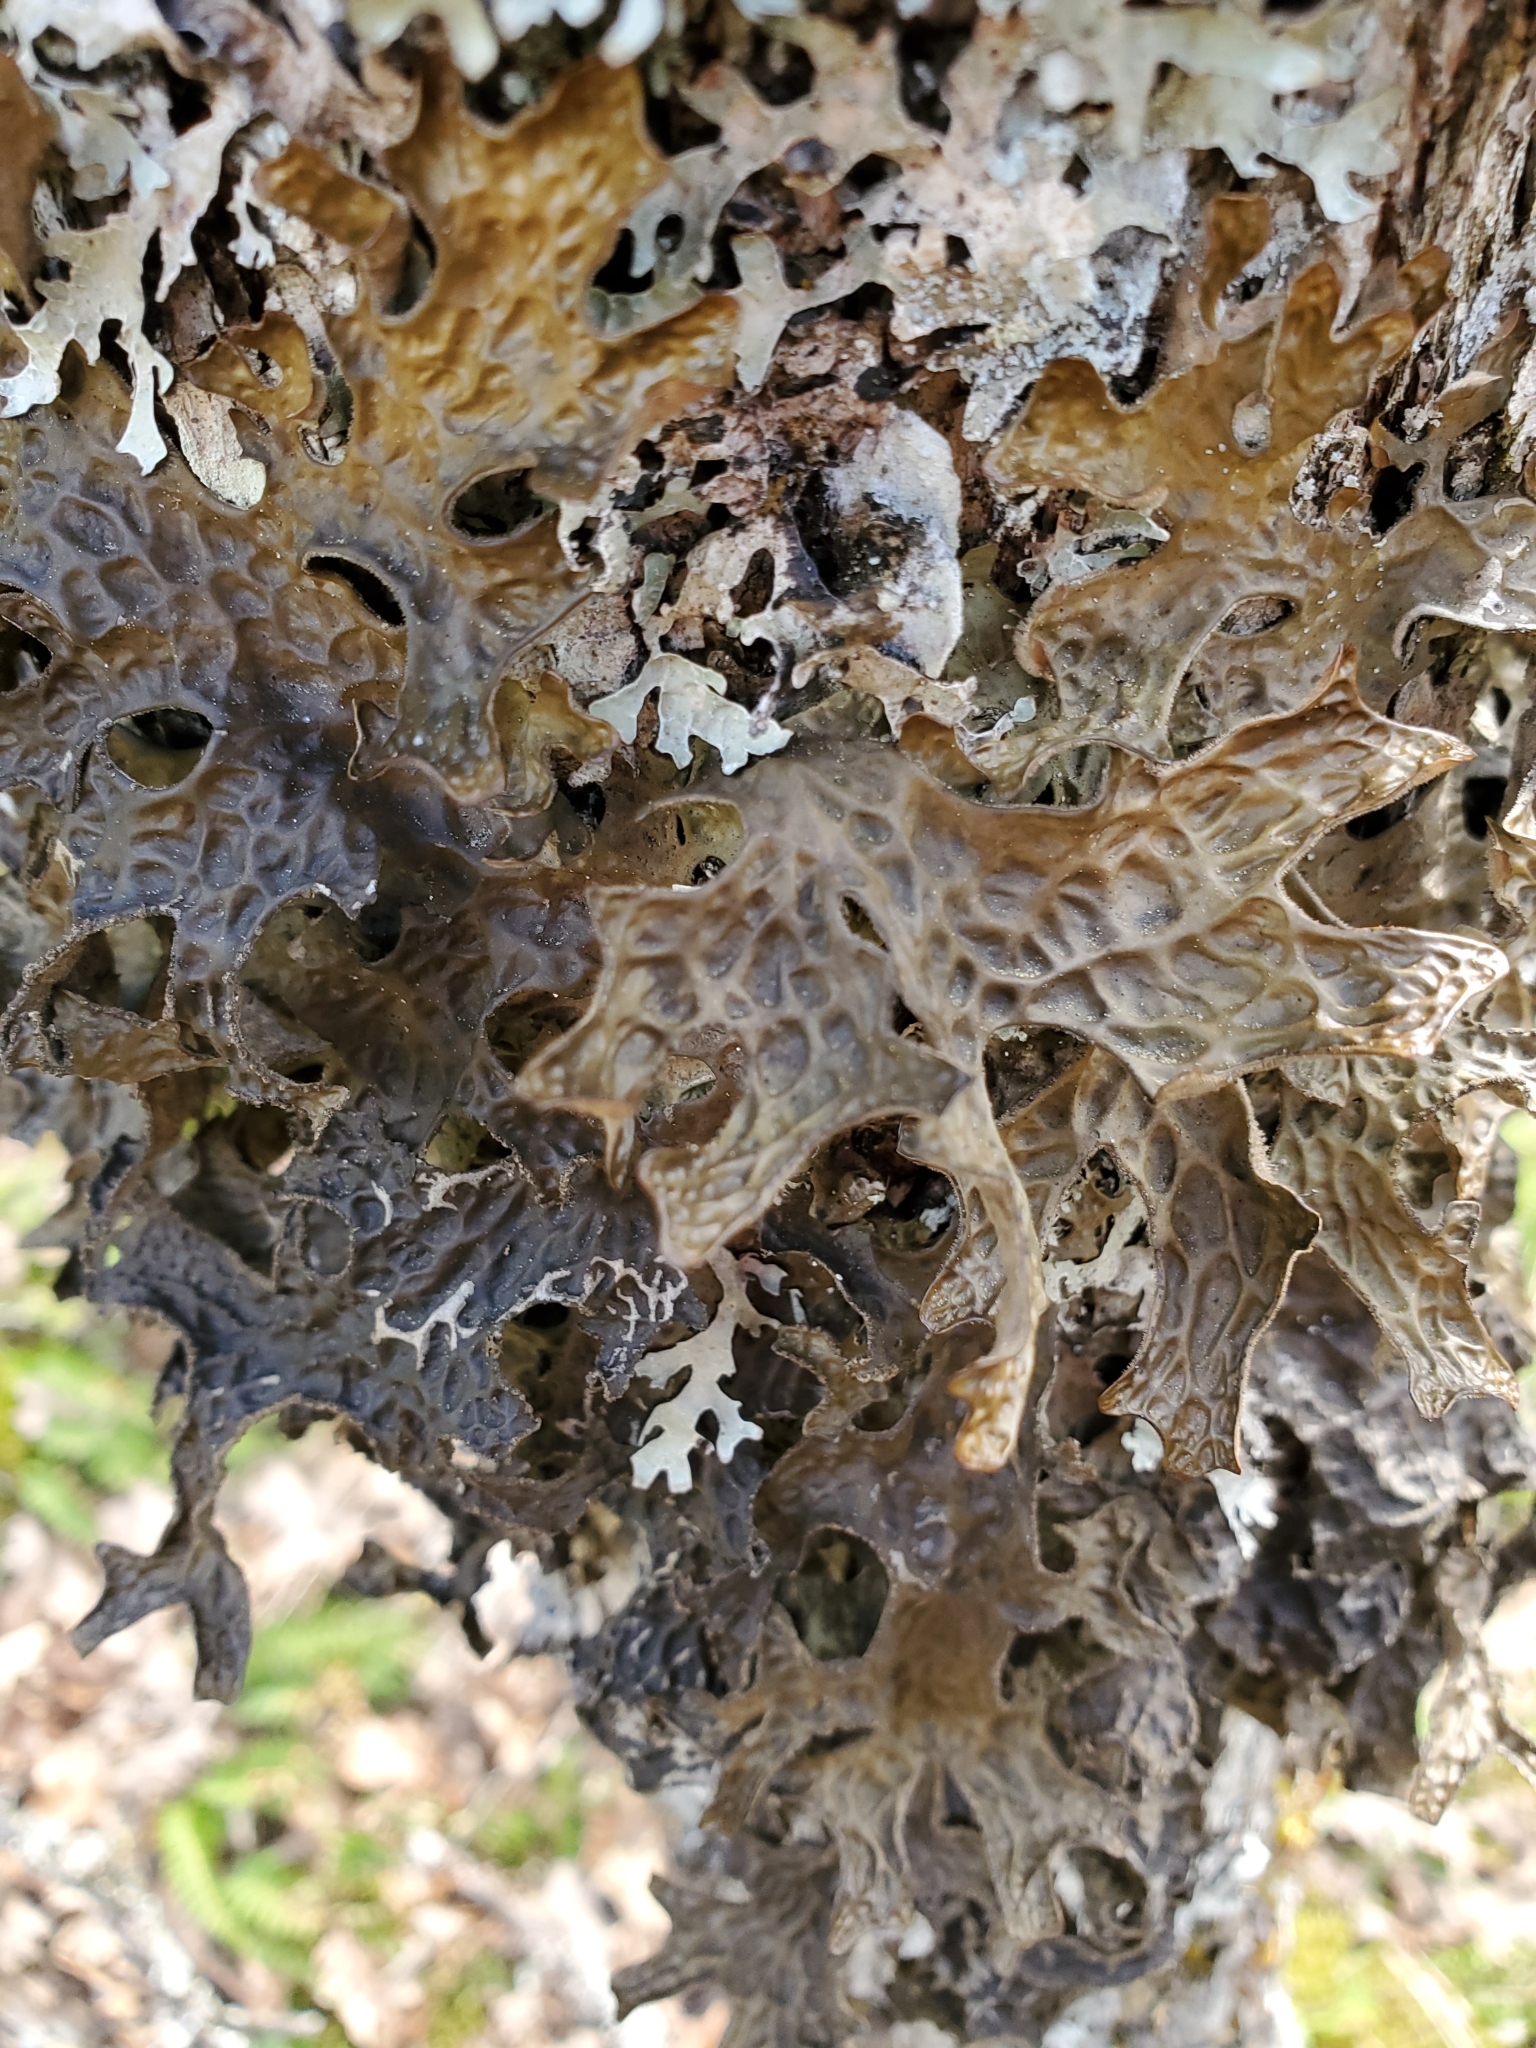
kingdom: Fungi
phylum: Ascomycota
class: Lecanoromycetes
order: Peltigerales
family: Lobariaceae
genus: Lobaria
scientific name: Lobaria pulmonaria
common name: Lungwort
